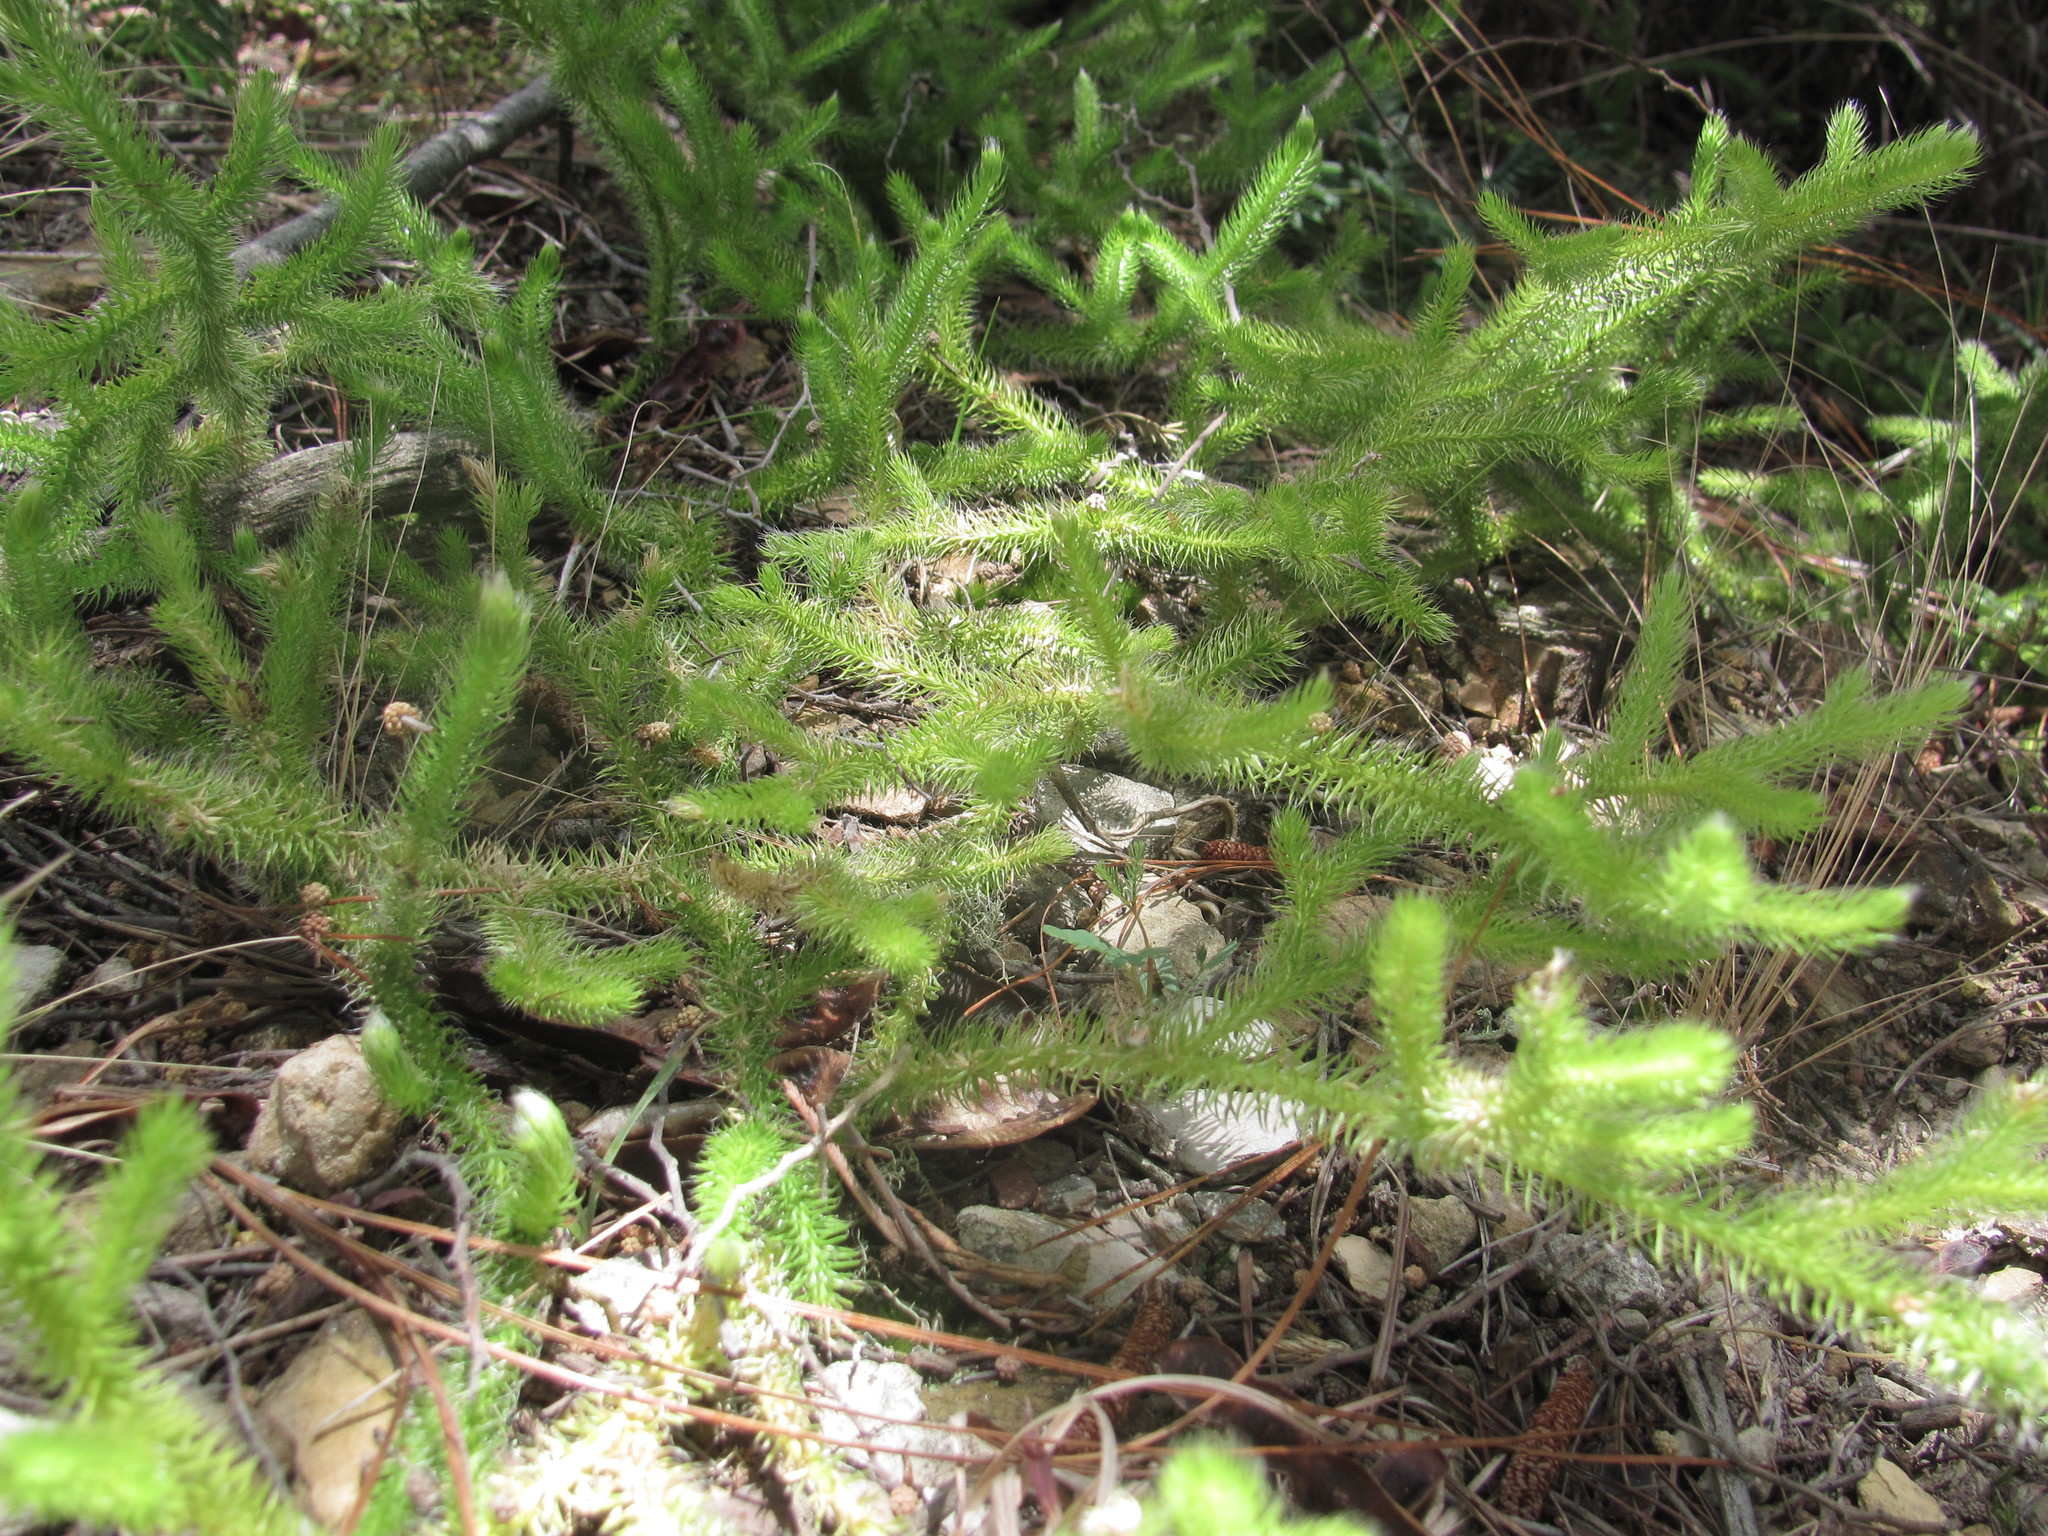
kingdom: Plantae
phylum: Tracheophyta
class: Lycopodiopsida
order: Lycopodiales
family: Lycopodiaceae
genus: Lycopodium
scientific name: Lycopodium clavatum
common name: Stag's-horn clubmoss
